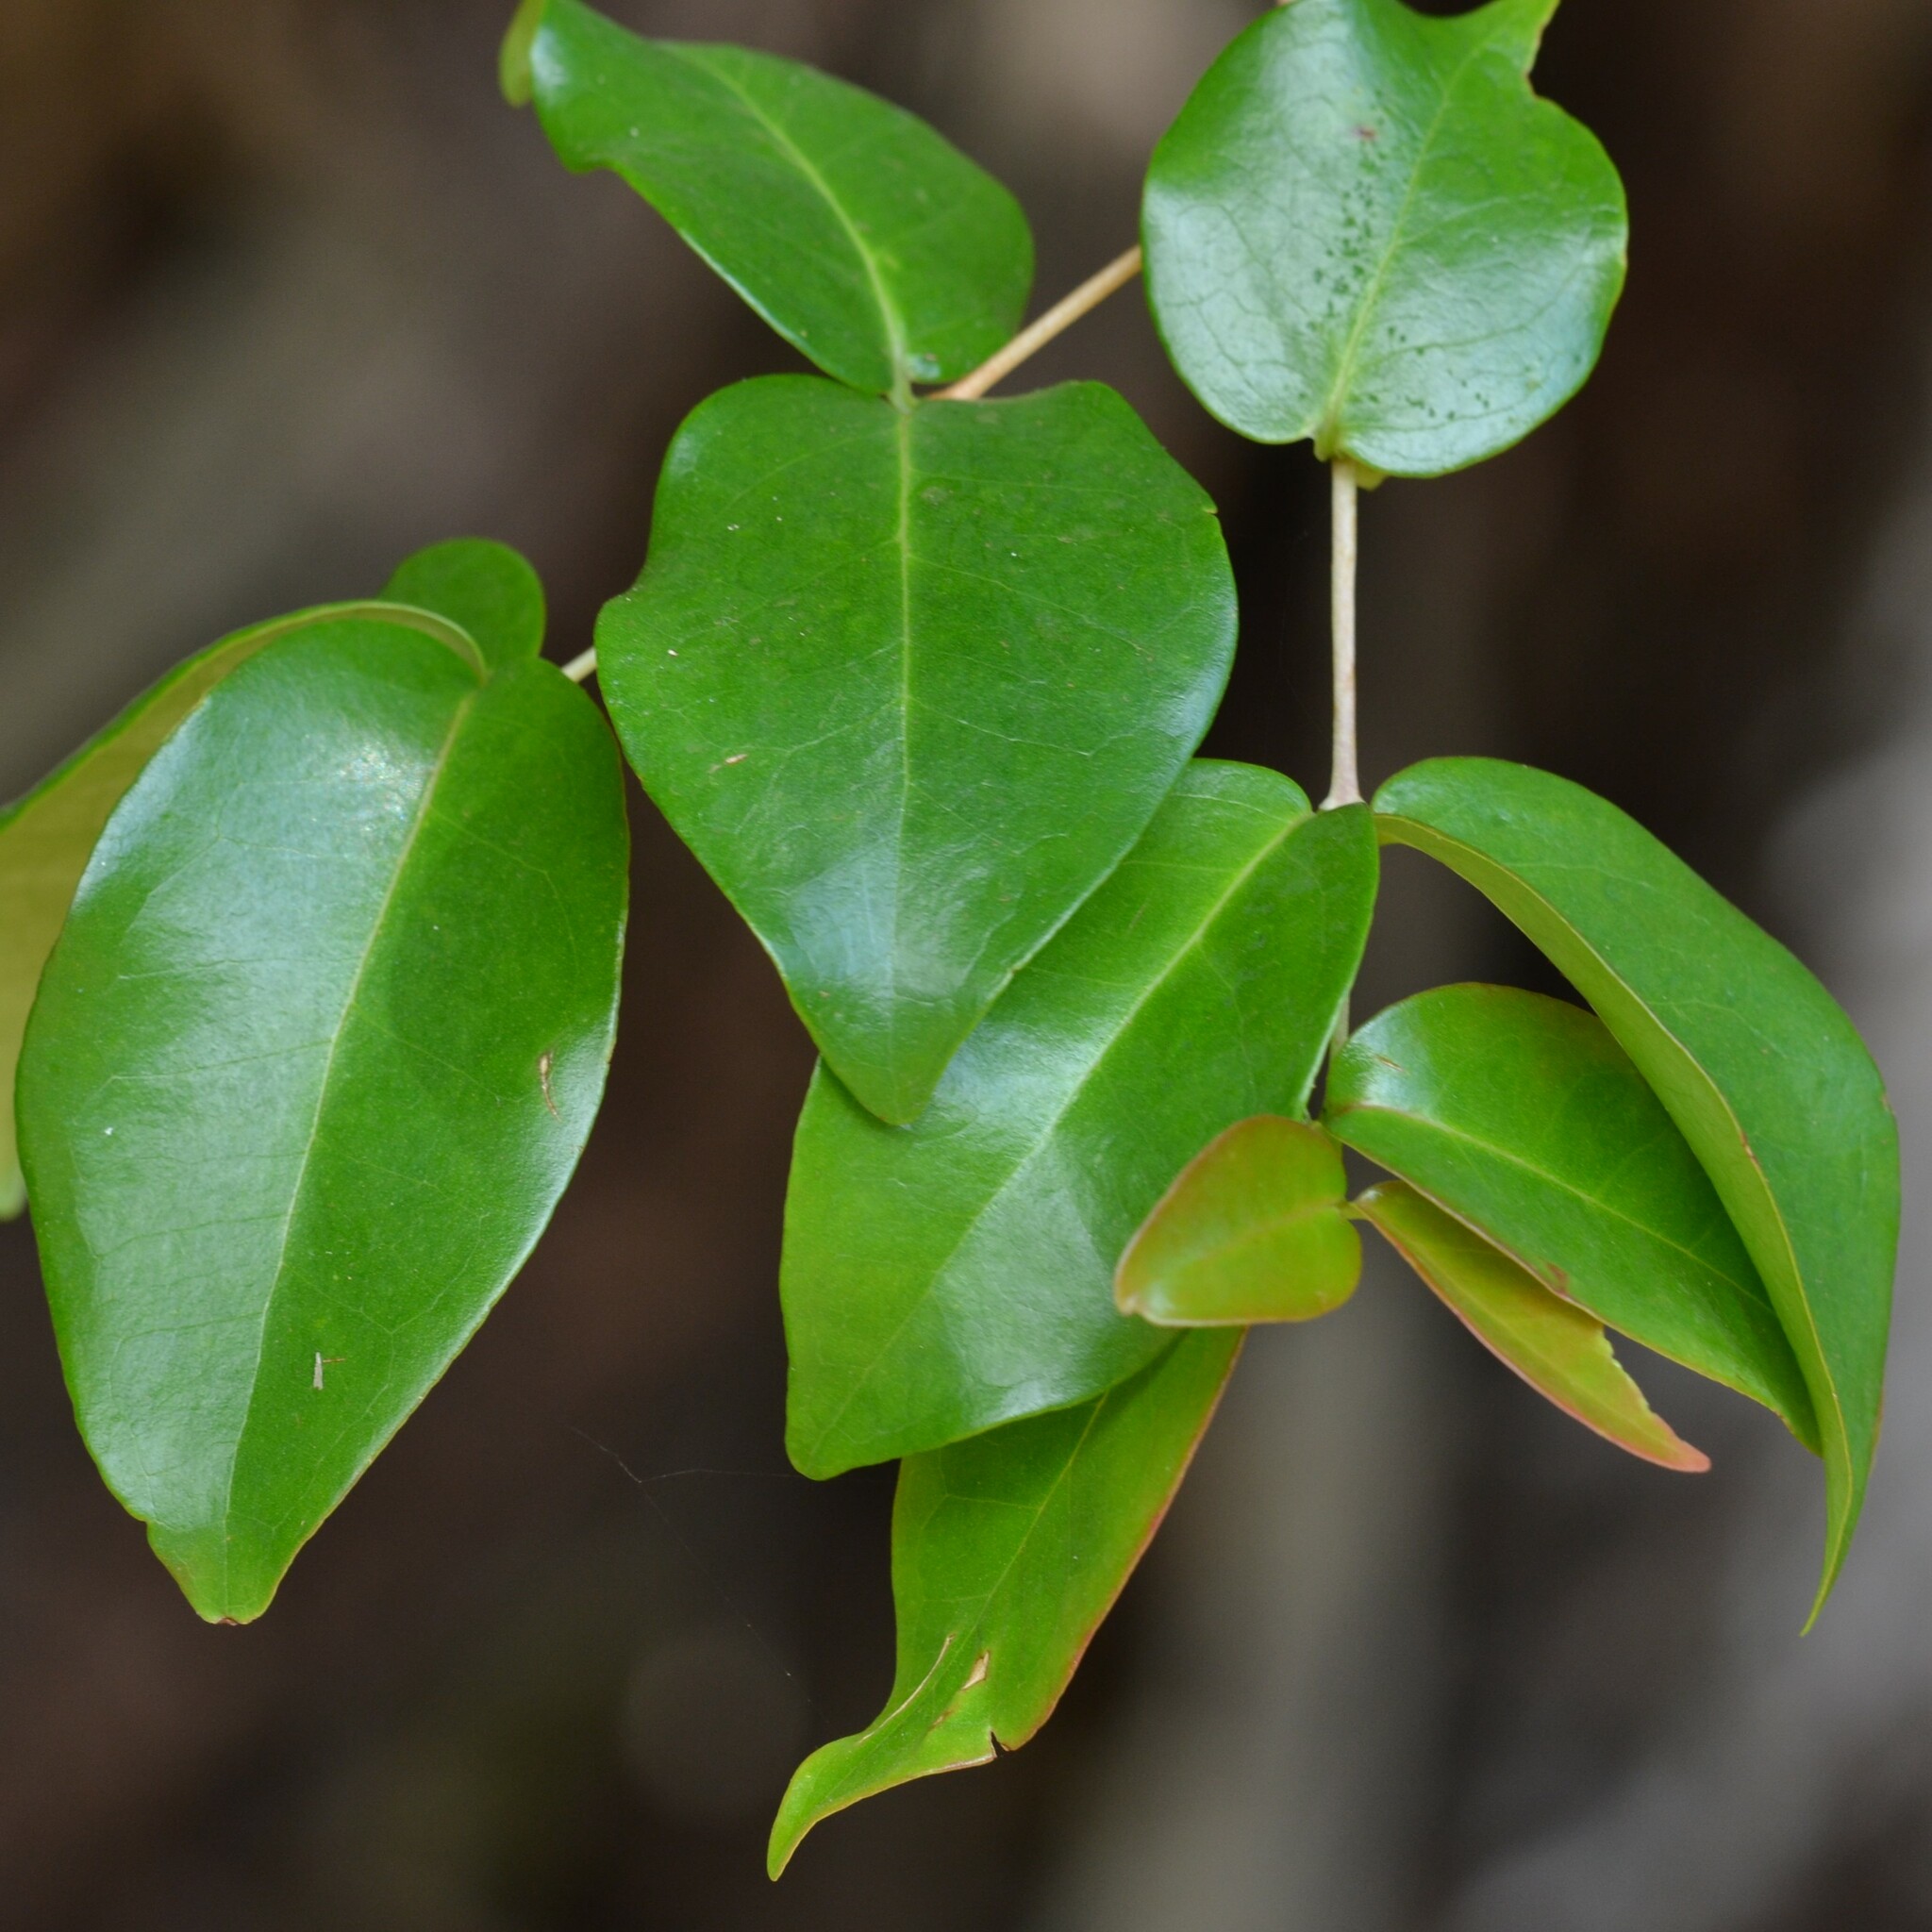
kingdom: Plantae
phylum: Tracheophyta
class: Magnoliopsida
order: Myrtales
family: Myrtaceae
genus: Eugenia
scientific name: Eugenia uniflora
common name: Surinam cherry
